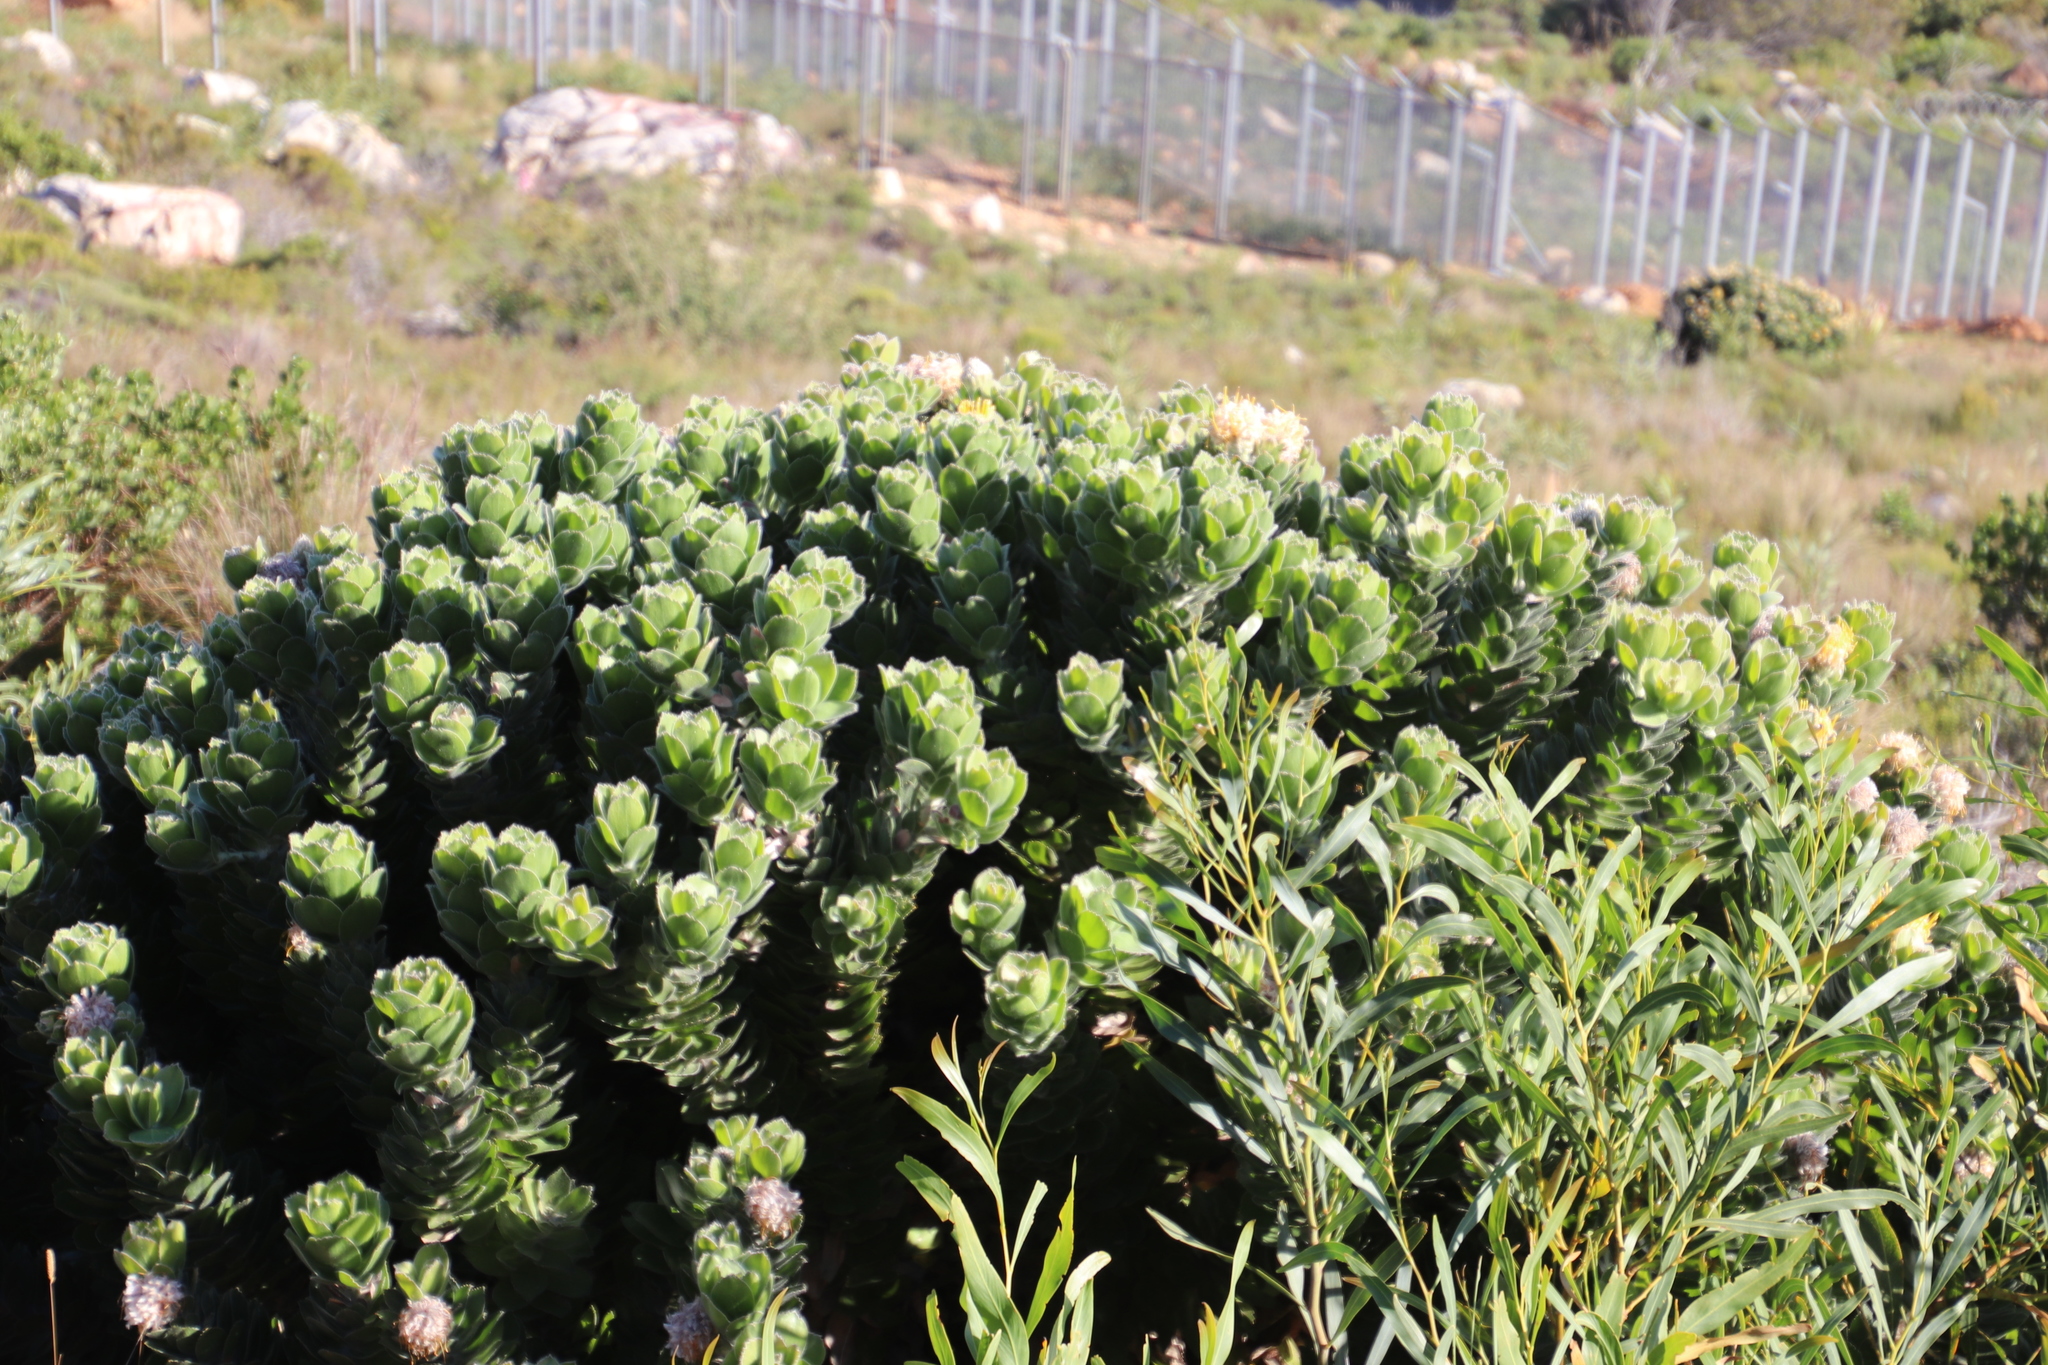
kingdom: Plantae
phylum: Tracheophyta
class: Magnoliopsida
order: Proteales
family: Proteaceae
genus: Leucospermum
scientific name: Leucospermum conocarpodendron
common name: Tree pincushion
